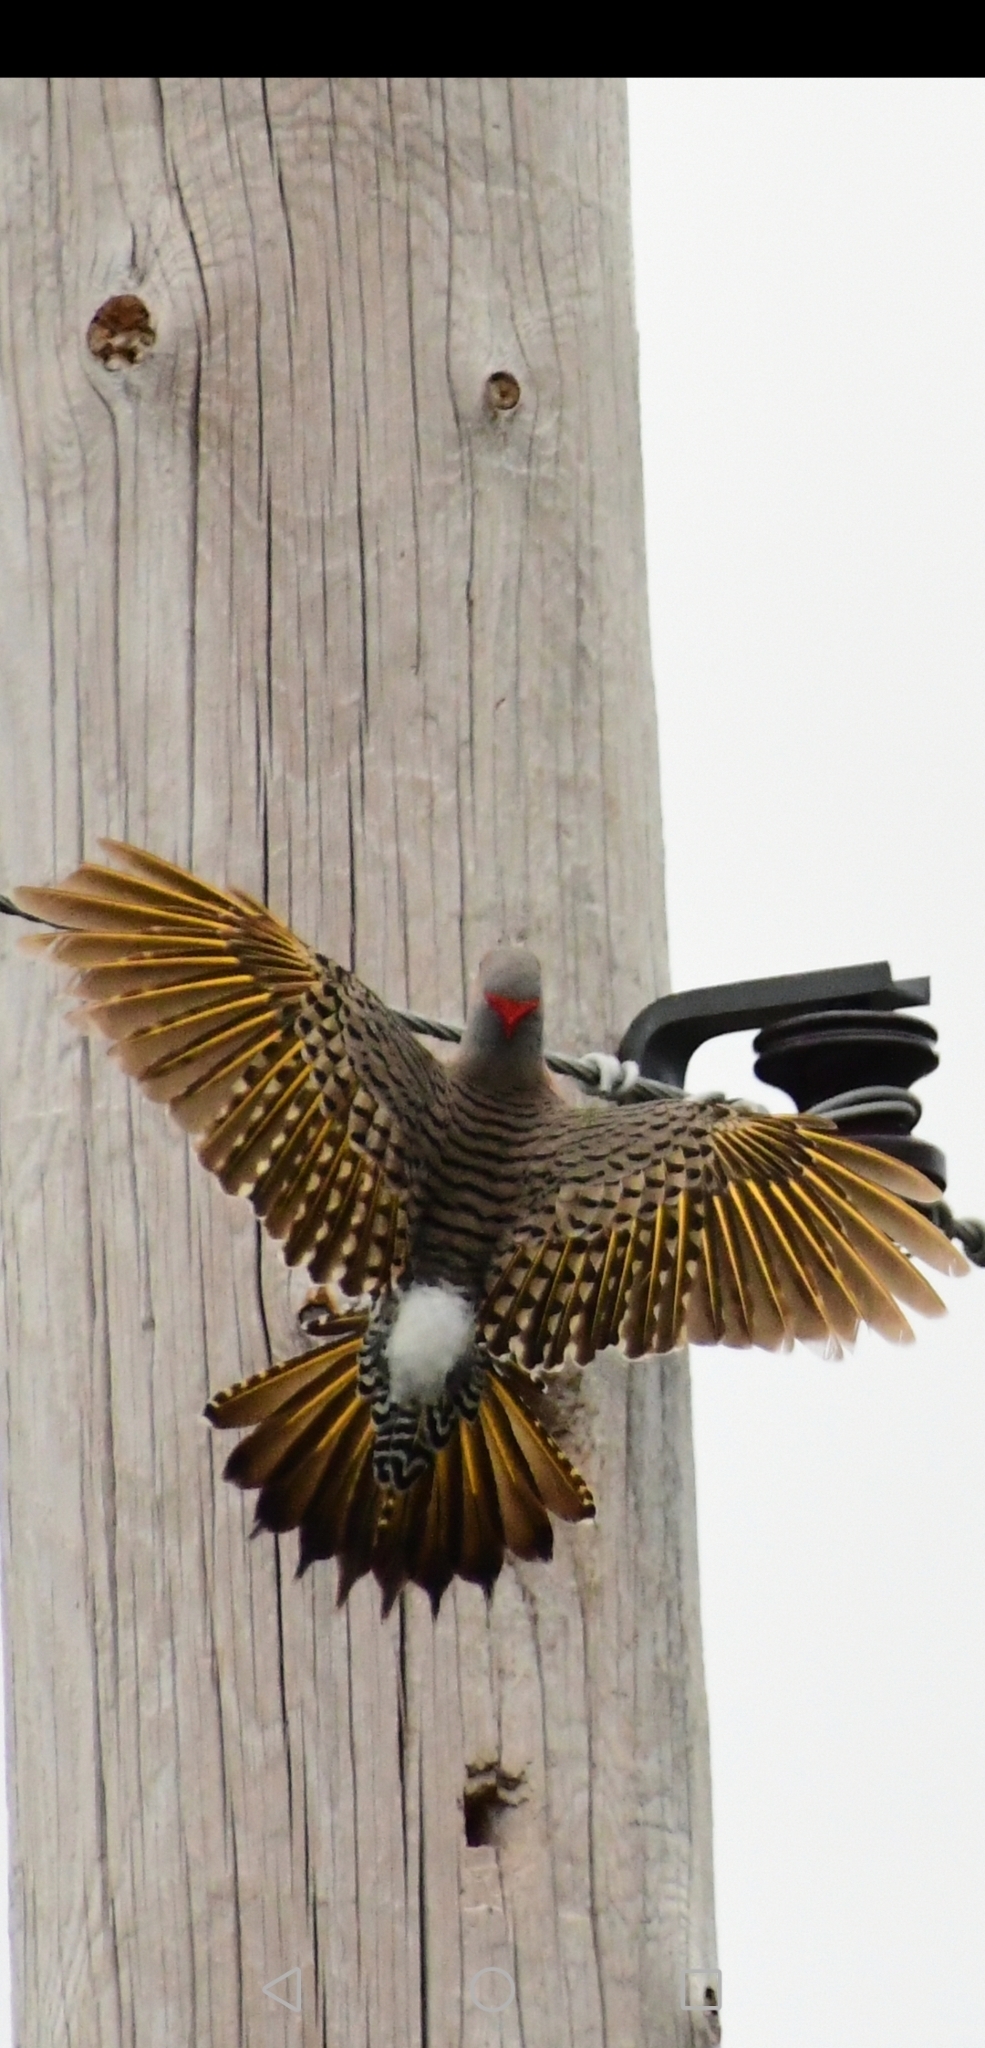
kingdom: Animalia
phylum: Chordata
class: Aves
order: Piciformes
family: Picidae
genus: Colaptes
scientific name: Colaptes auratus
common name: Northern flicker
